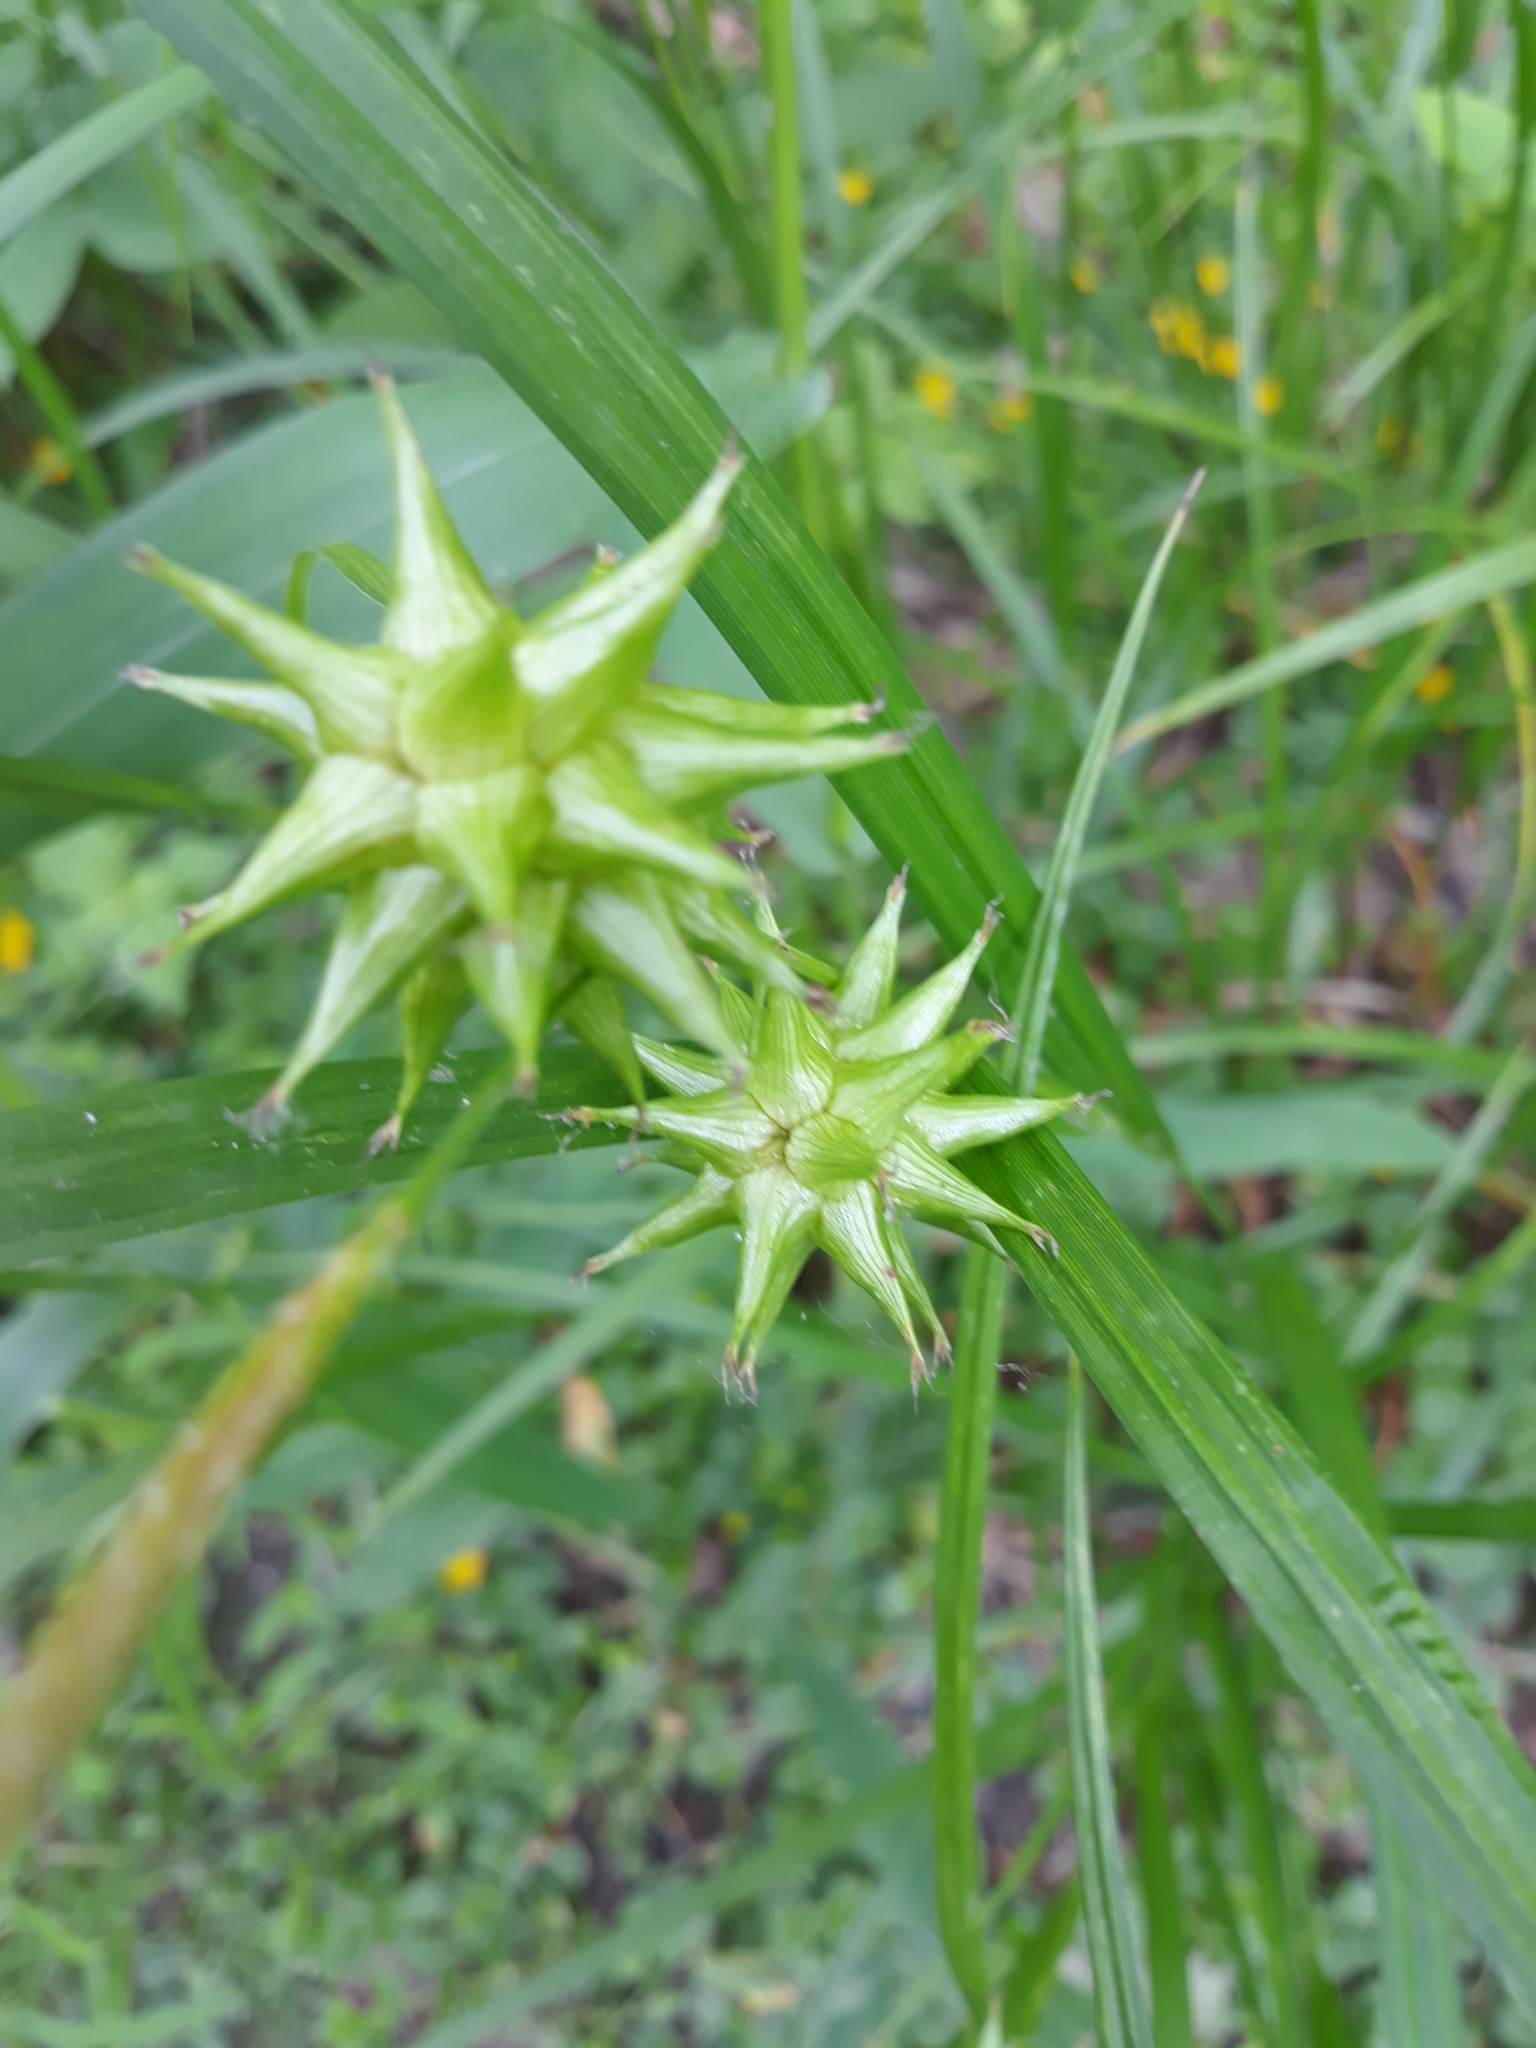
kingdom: Plantae
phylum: Tracheophyta
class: Liliopsida
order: Poales
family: Cyperaceae
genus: Carex
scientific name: Carex grayi
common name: Asa gray's sedge
